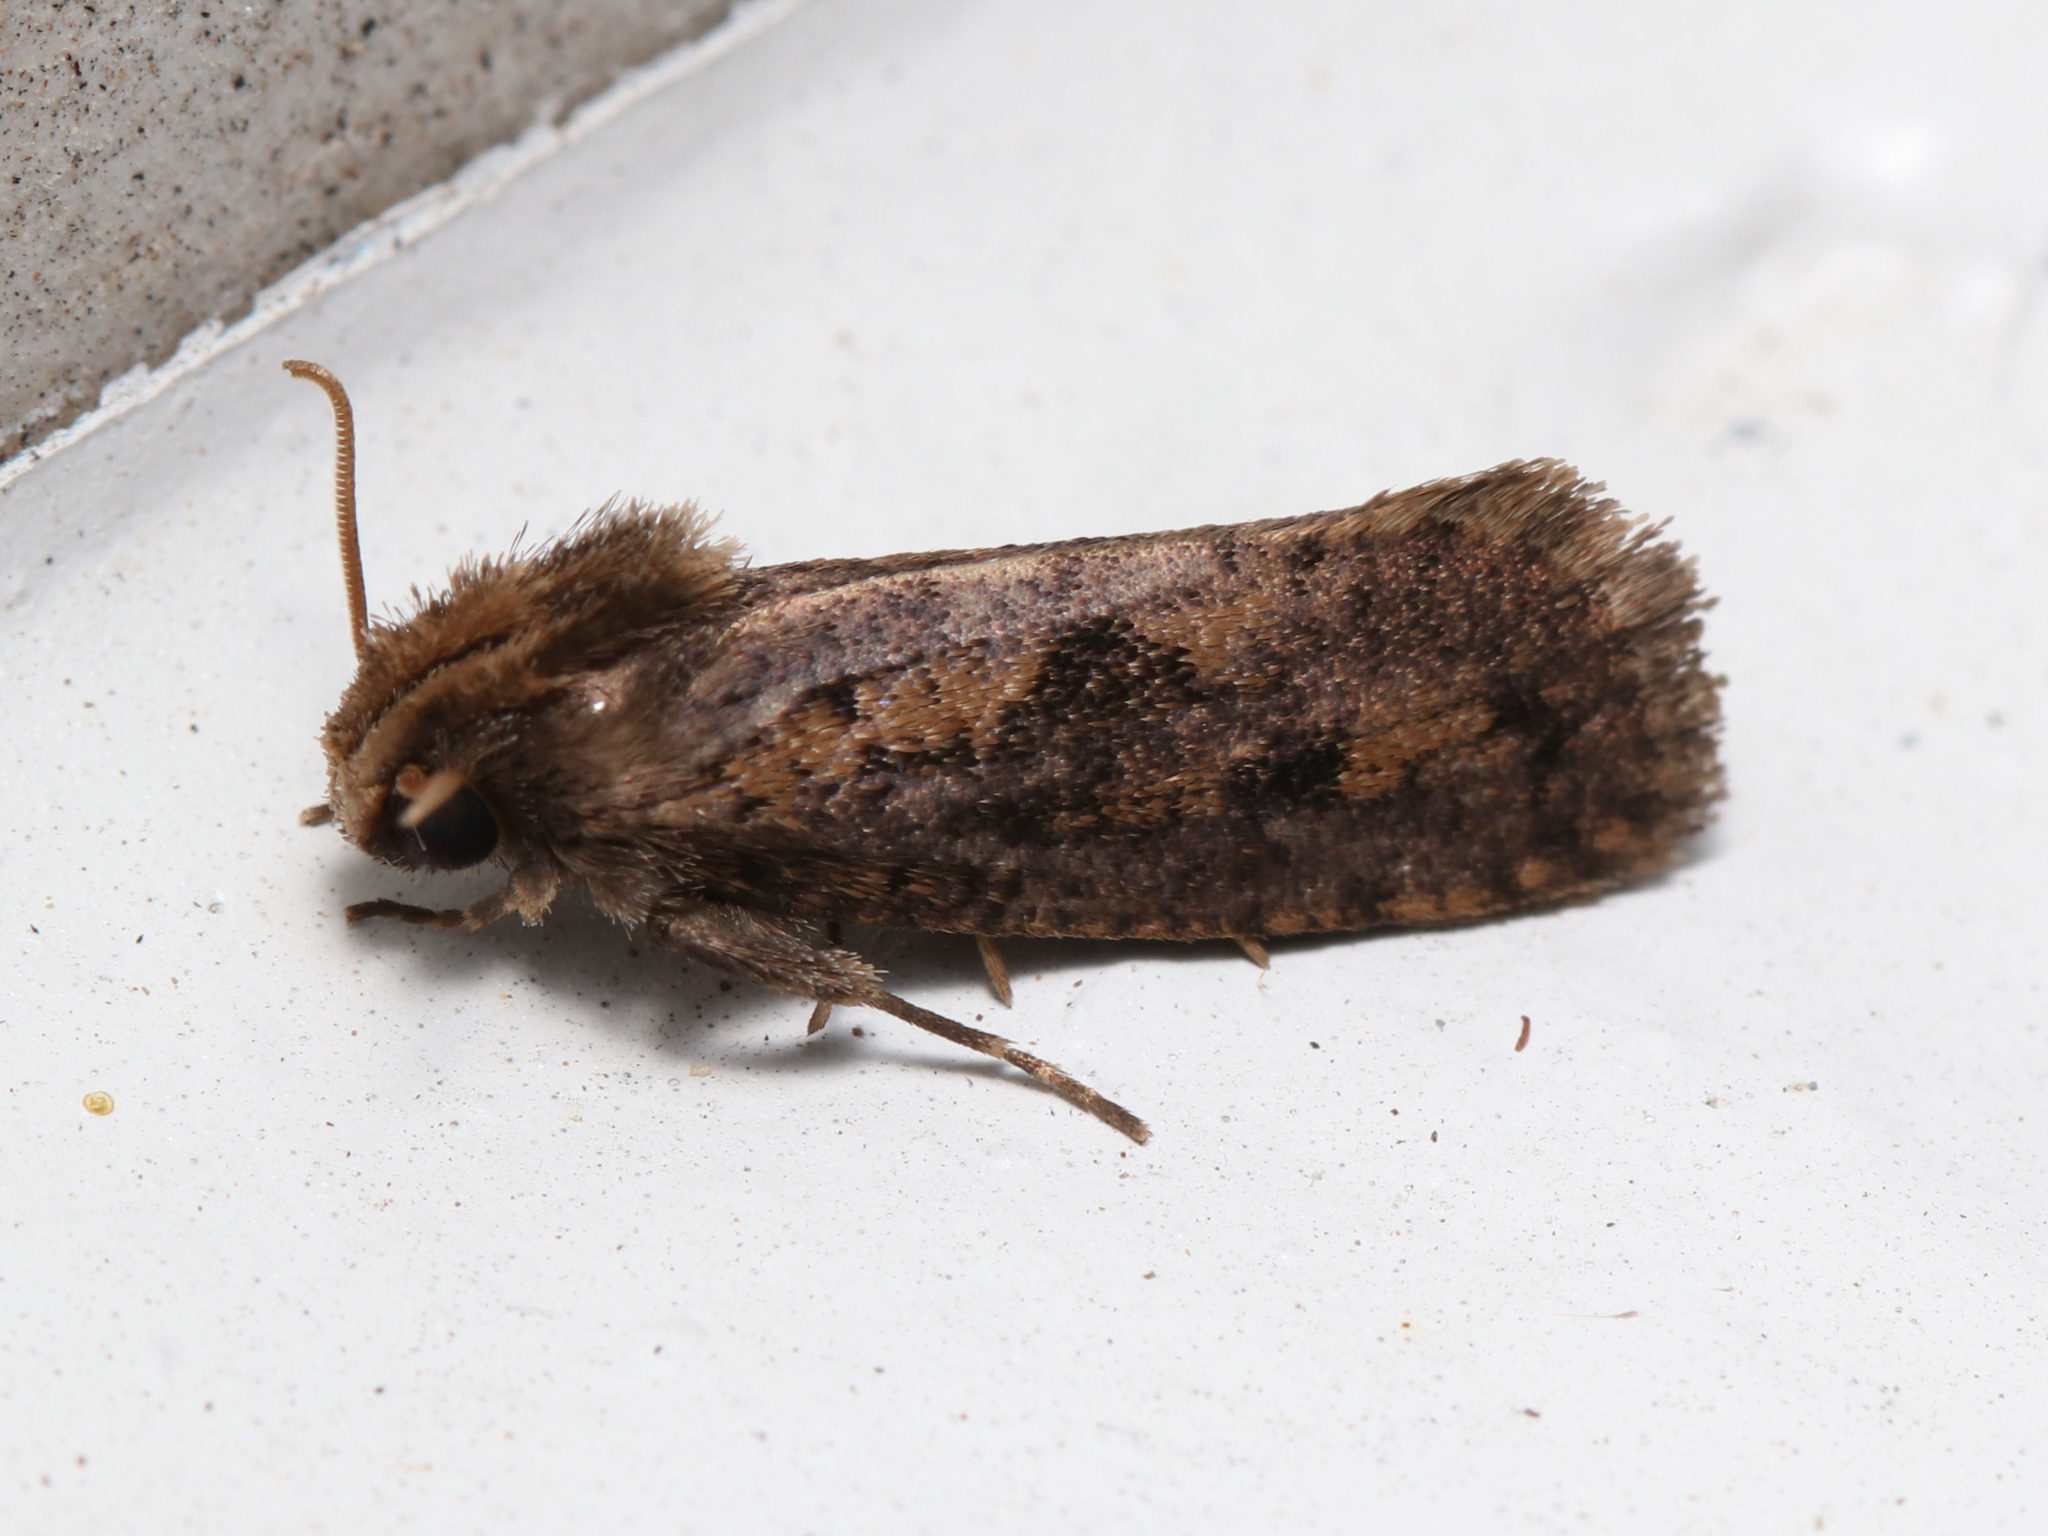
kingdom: Animalia
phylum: Arthropoda
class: Insecta
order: Lepidoptera
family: Tineidae
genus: Acrolophus
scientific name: Acrolophus popeanella
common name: Clemens' grass tubeworm moth
